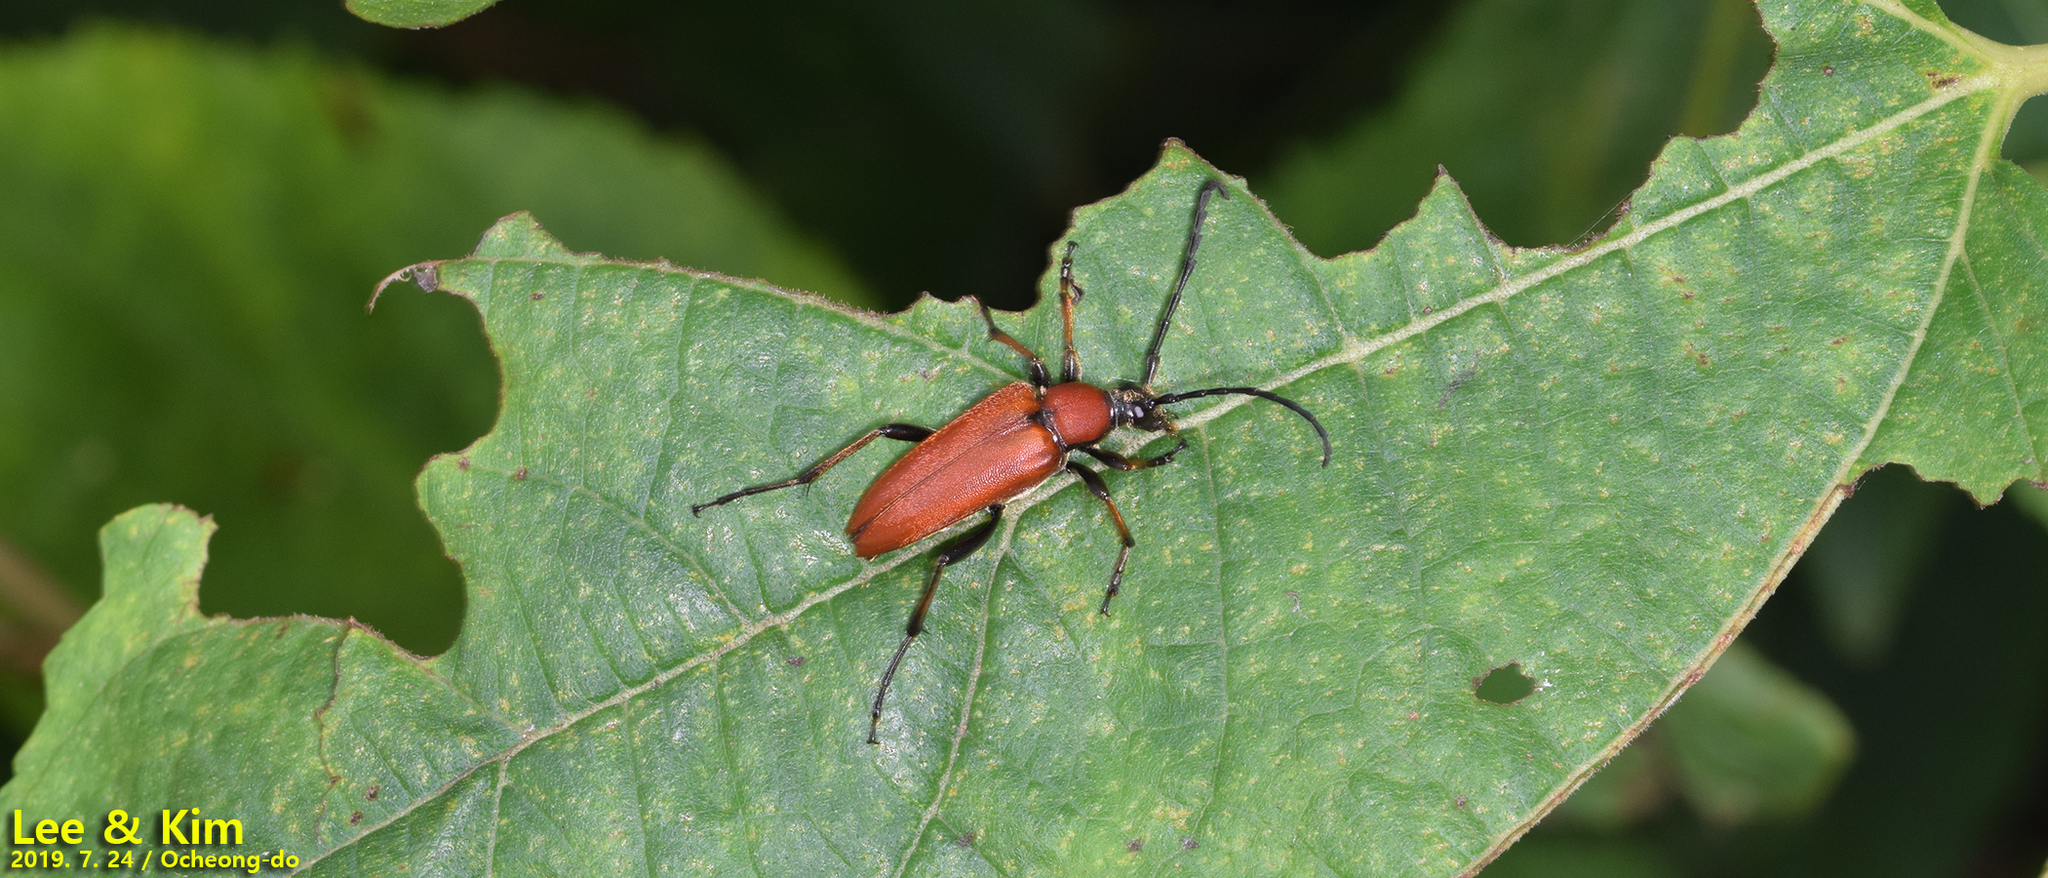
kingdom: Animalia
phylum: Arthropoda
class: Insecta
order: Coleoptera
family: Cerambycidae
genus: Stictoleptura
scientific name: Stictoleptura dichroa
